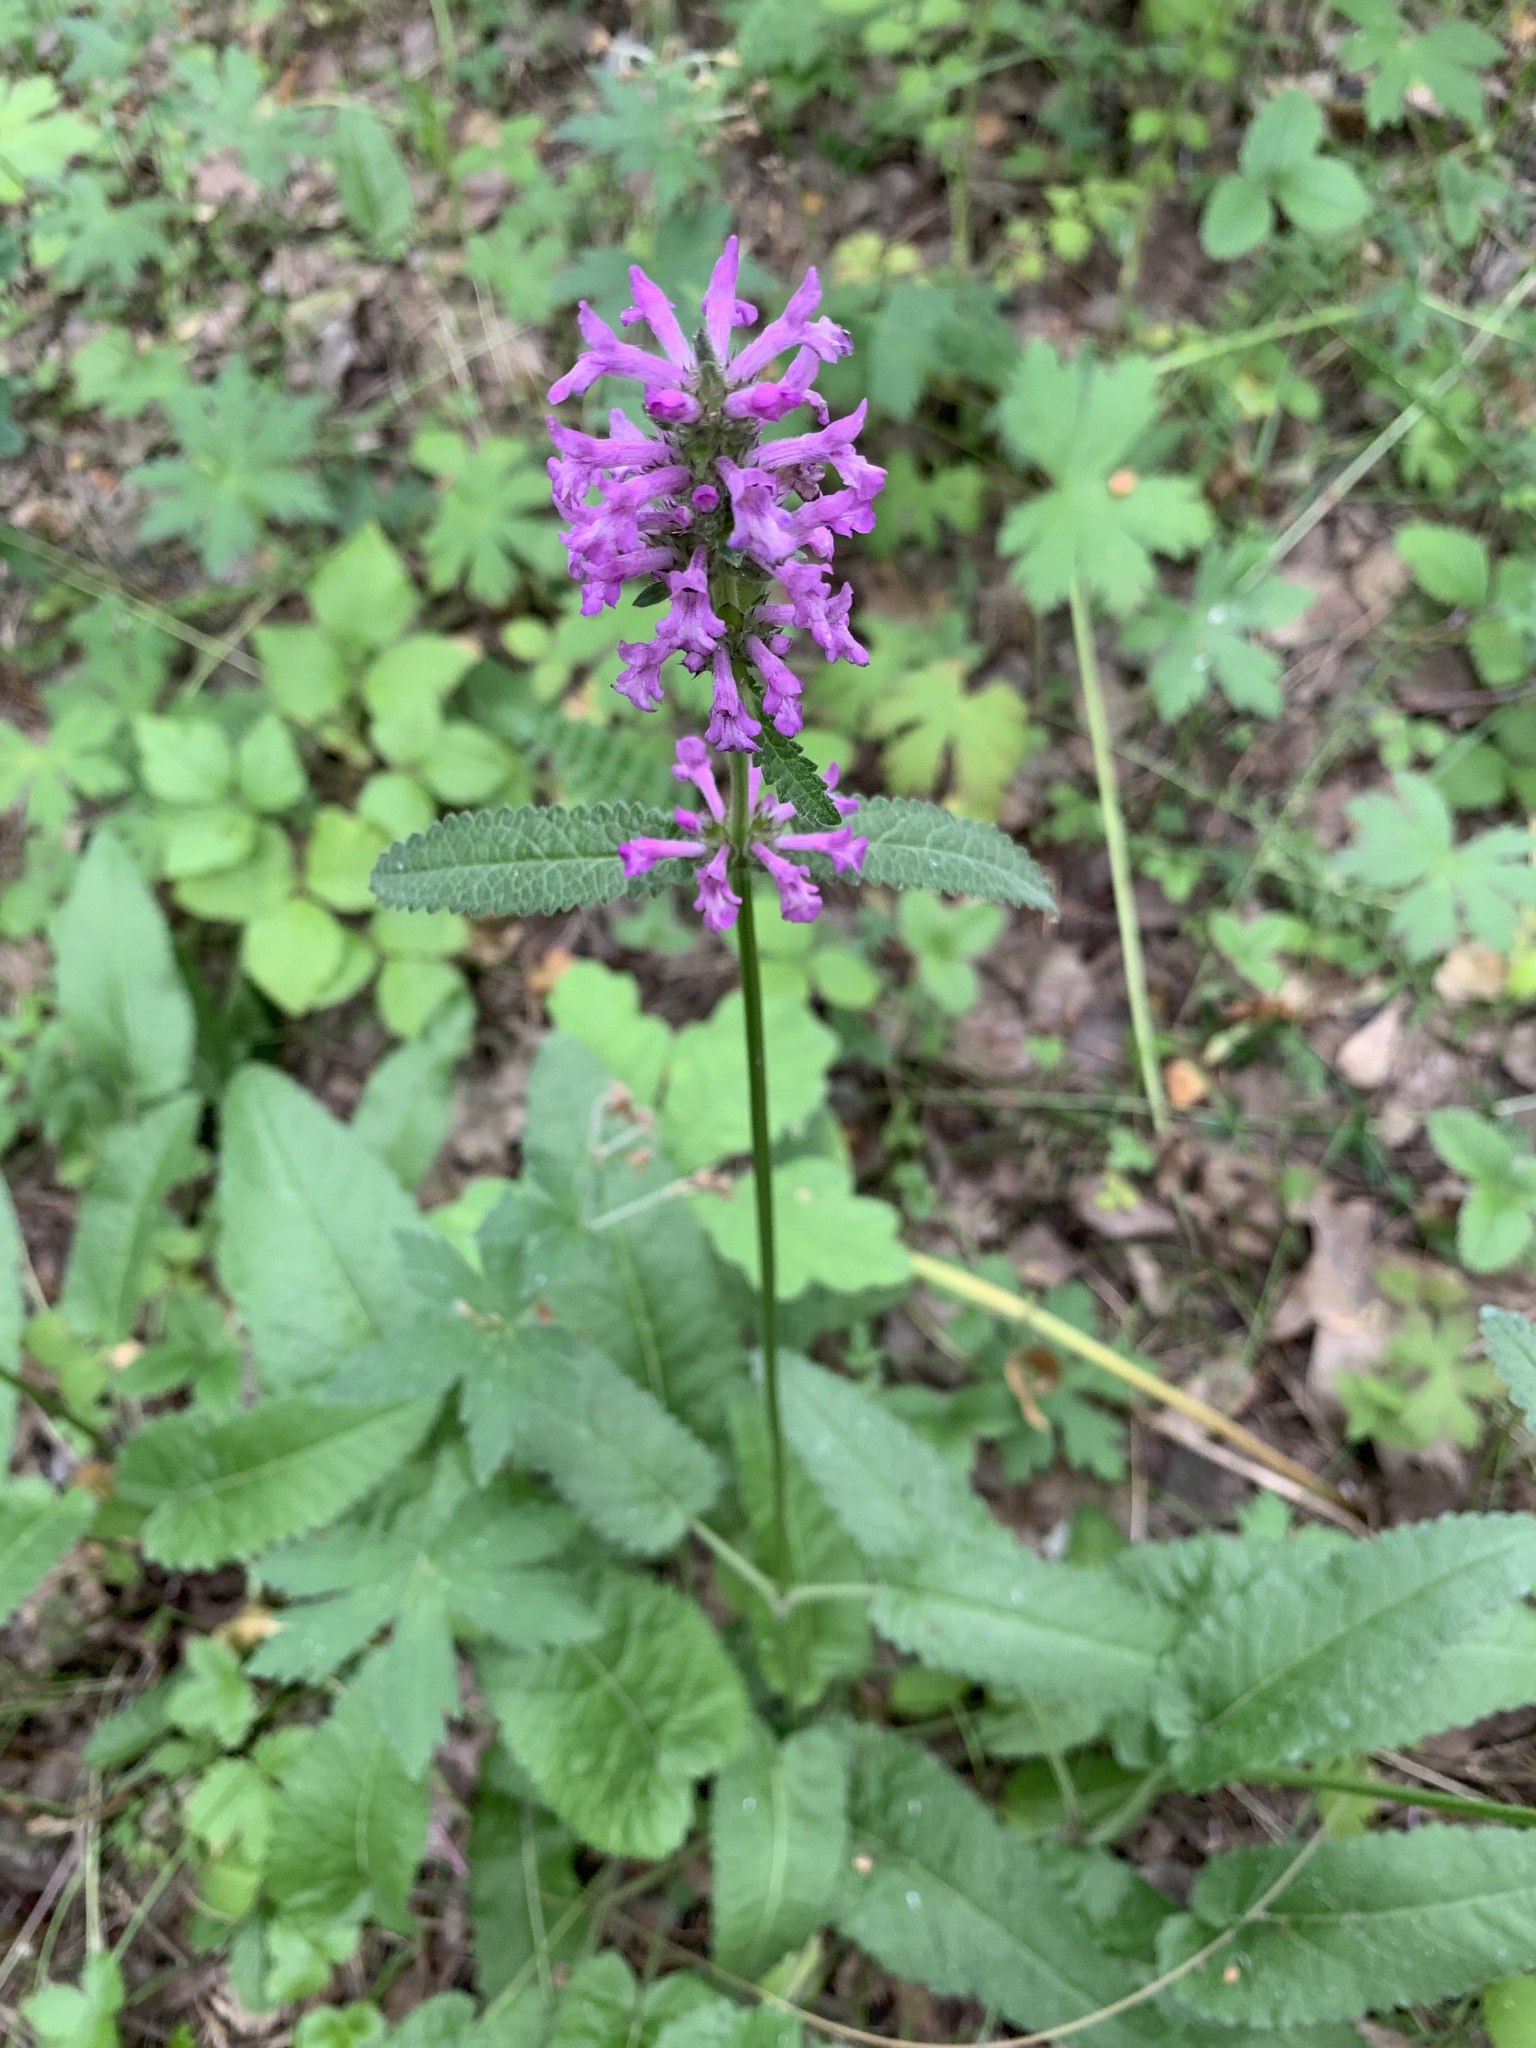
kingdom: Plantae
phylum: Tracheophyta
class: Magnoliopsida
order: Lamiales
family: Lamiaceae
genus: Betonica
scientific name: Betonica officinalis
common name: Bishop's-wort
